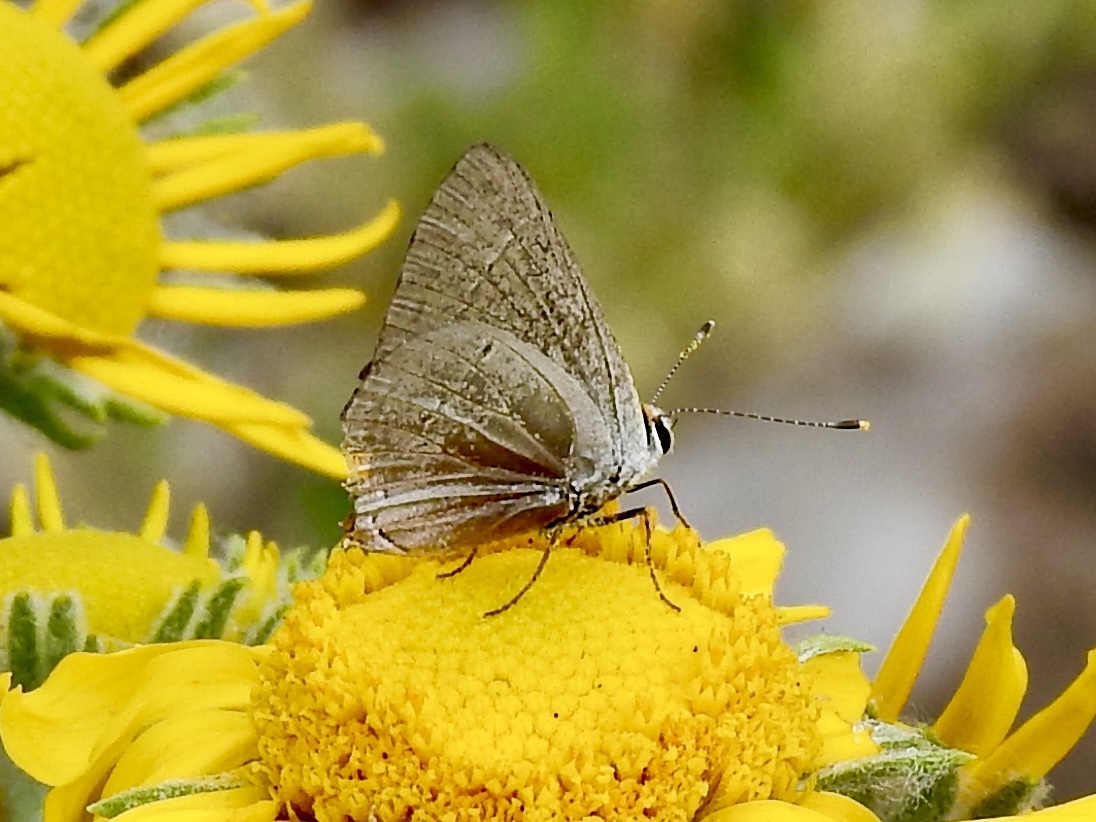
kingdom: Animalia
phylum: Arthropoda
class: Insecta
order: Lepidoptera
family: Lycaenidae
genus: Strymon
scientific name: Strymon melinus
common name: Gray hairstreak
